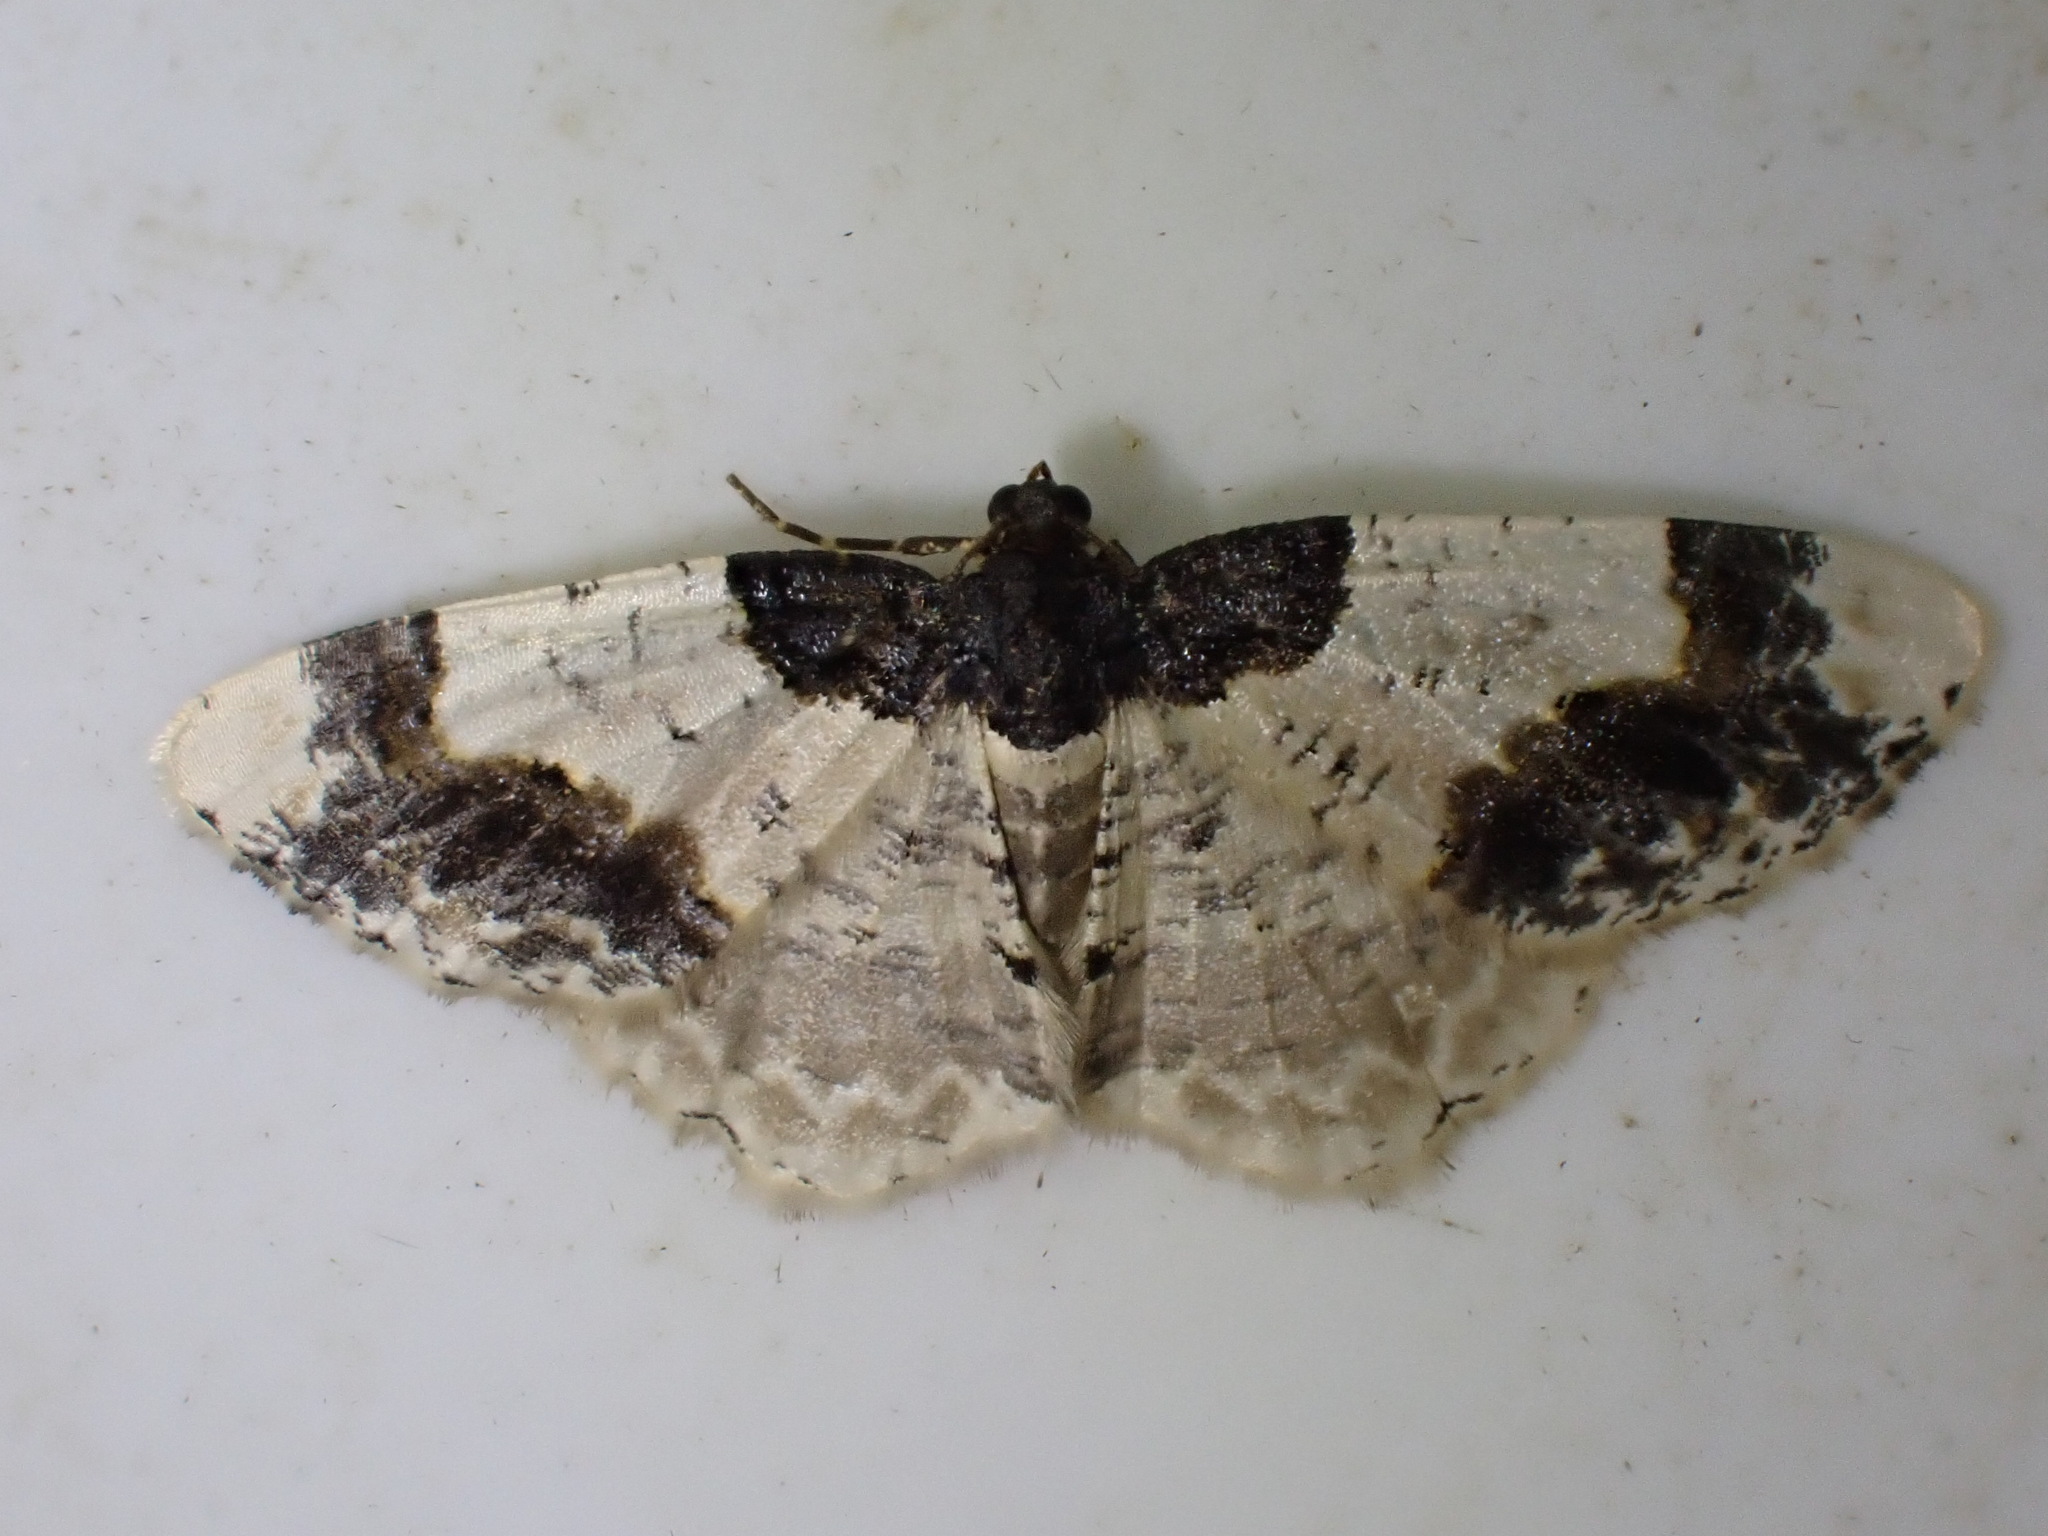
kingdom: Animalia
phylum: Arthropoda
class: Insecta
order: Lepidoptera
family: Geometridae
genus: Ligdia
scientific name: Ligdia adustata
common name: Scorched carpet
